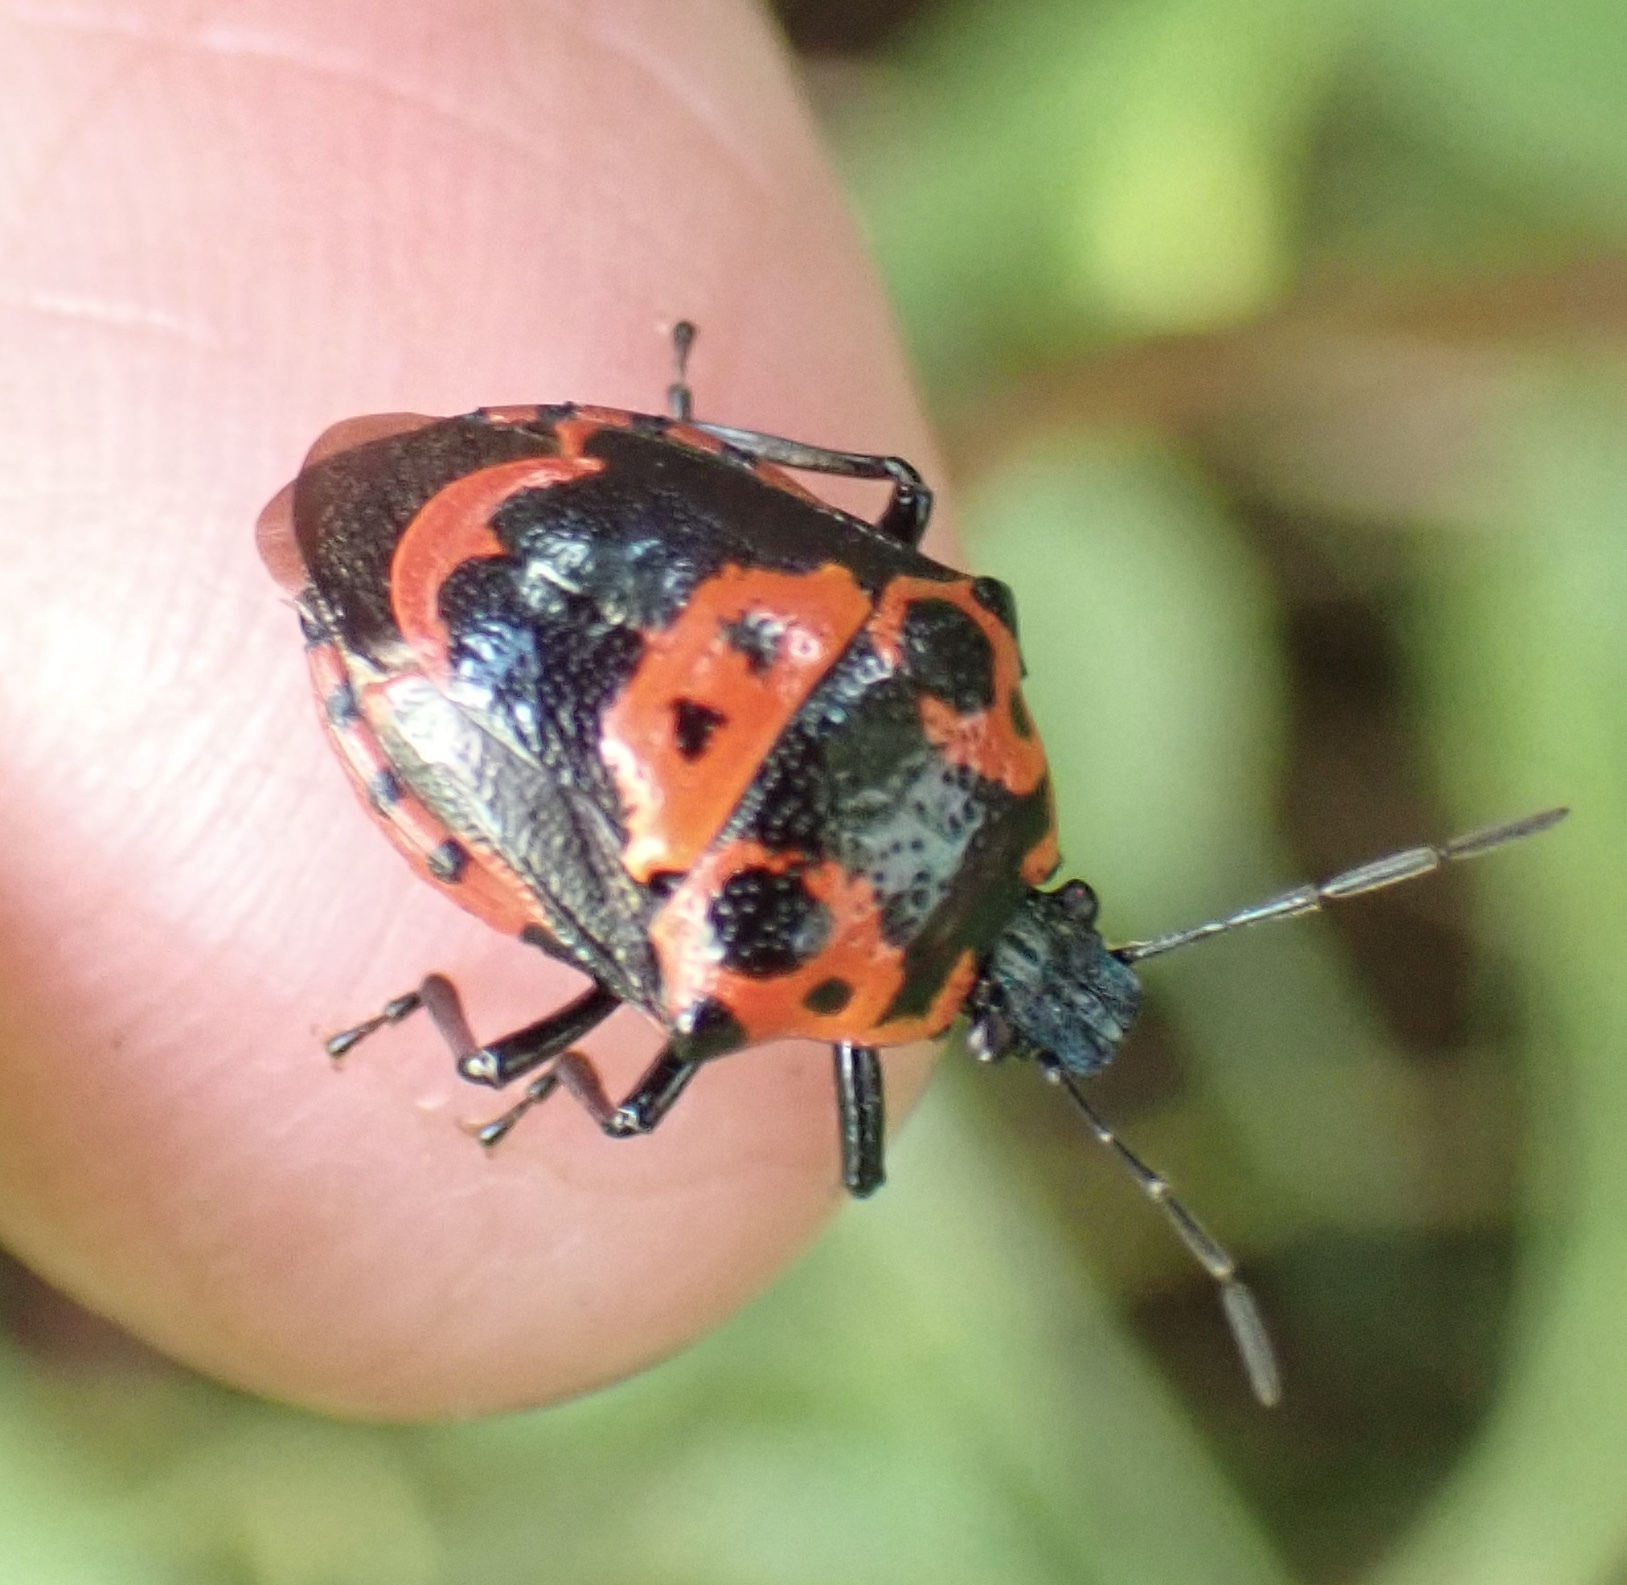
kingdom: Animalia
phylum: Arthropoda
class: Insecta
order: Hemiptera
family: Pentatomidae
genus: Stiretrus
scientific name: Stiretrus anchorago
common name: Anchor stink bug
